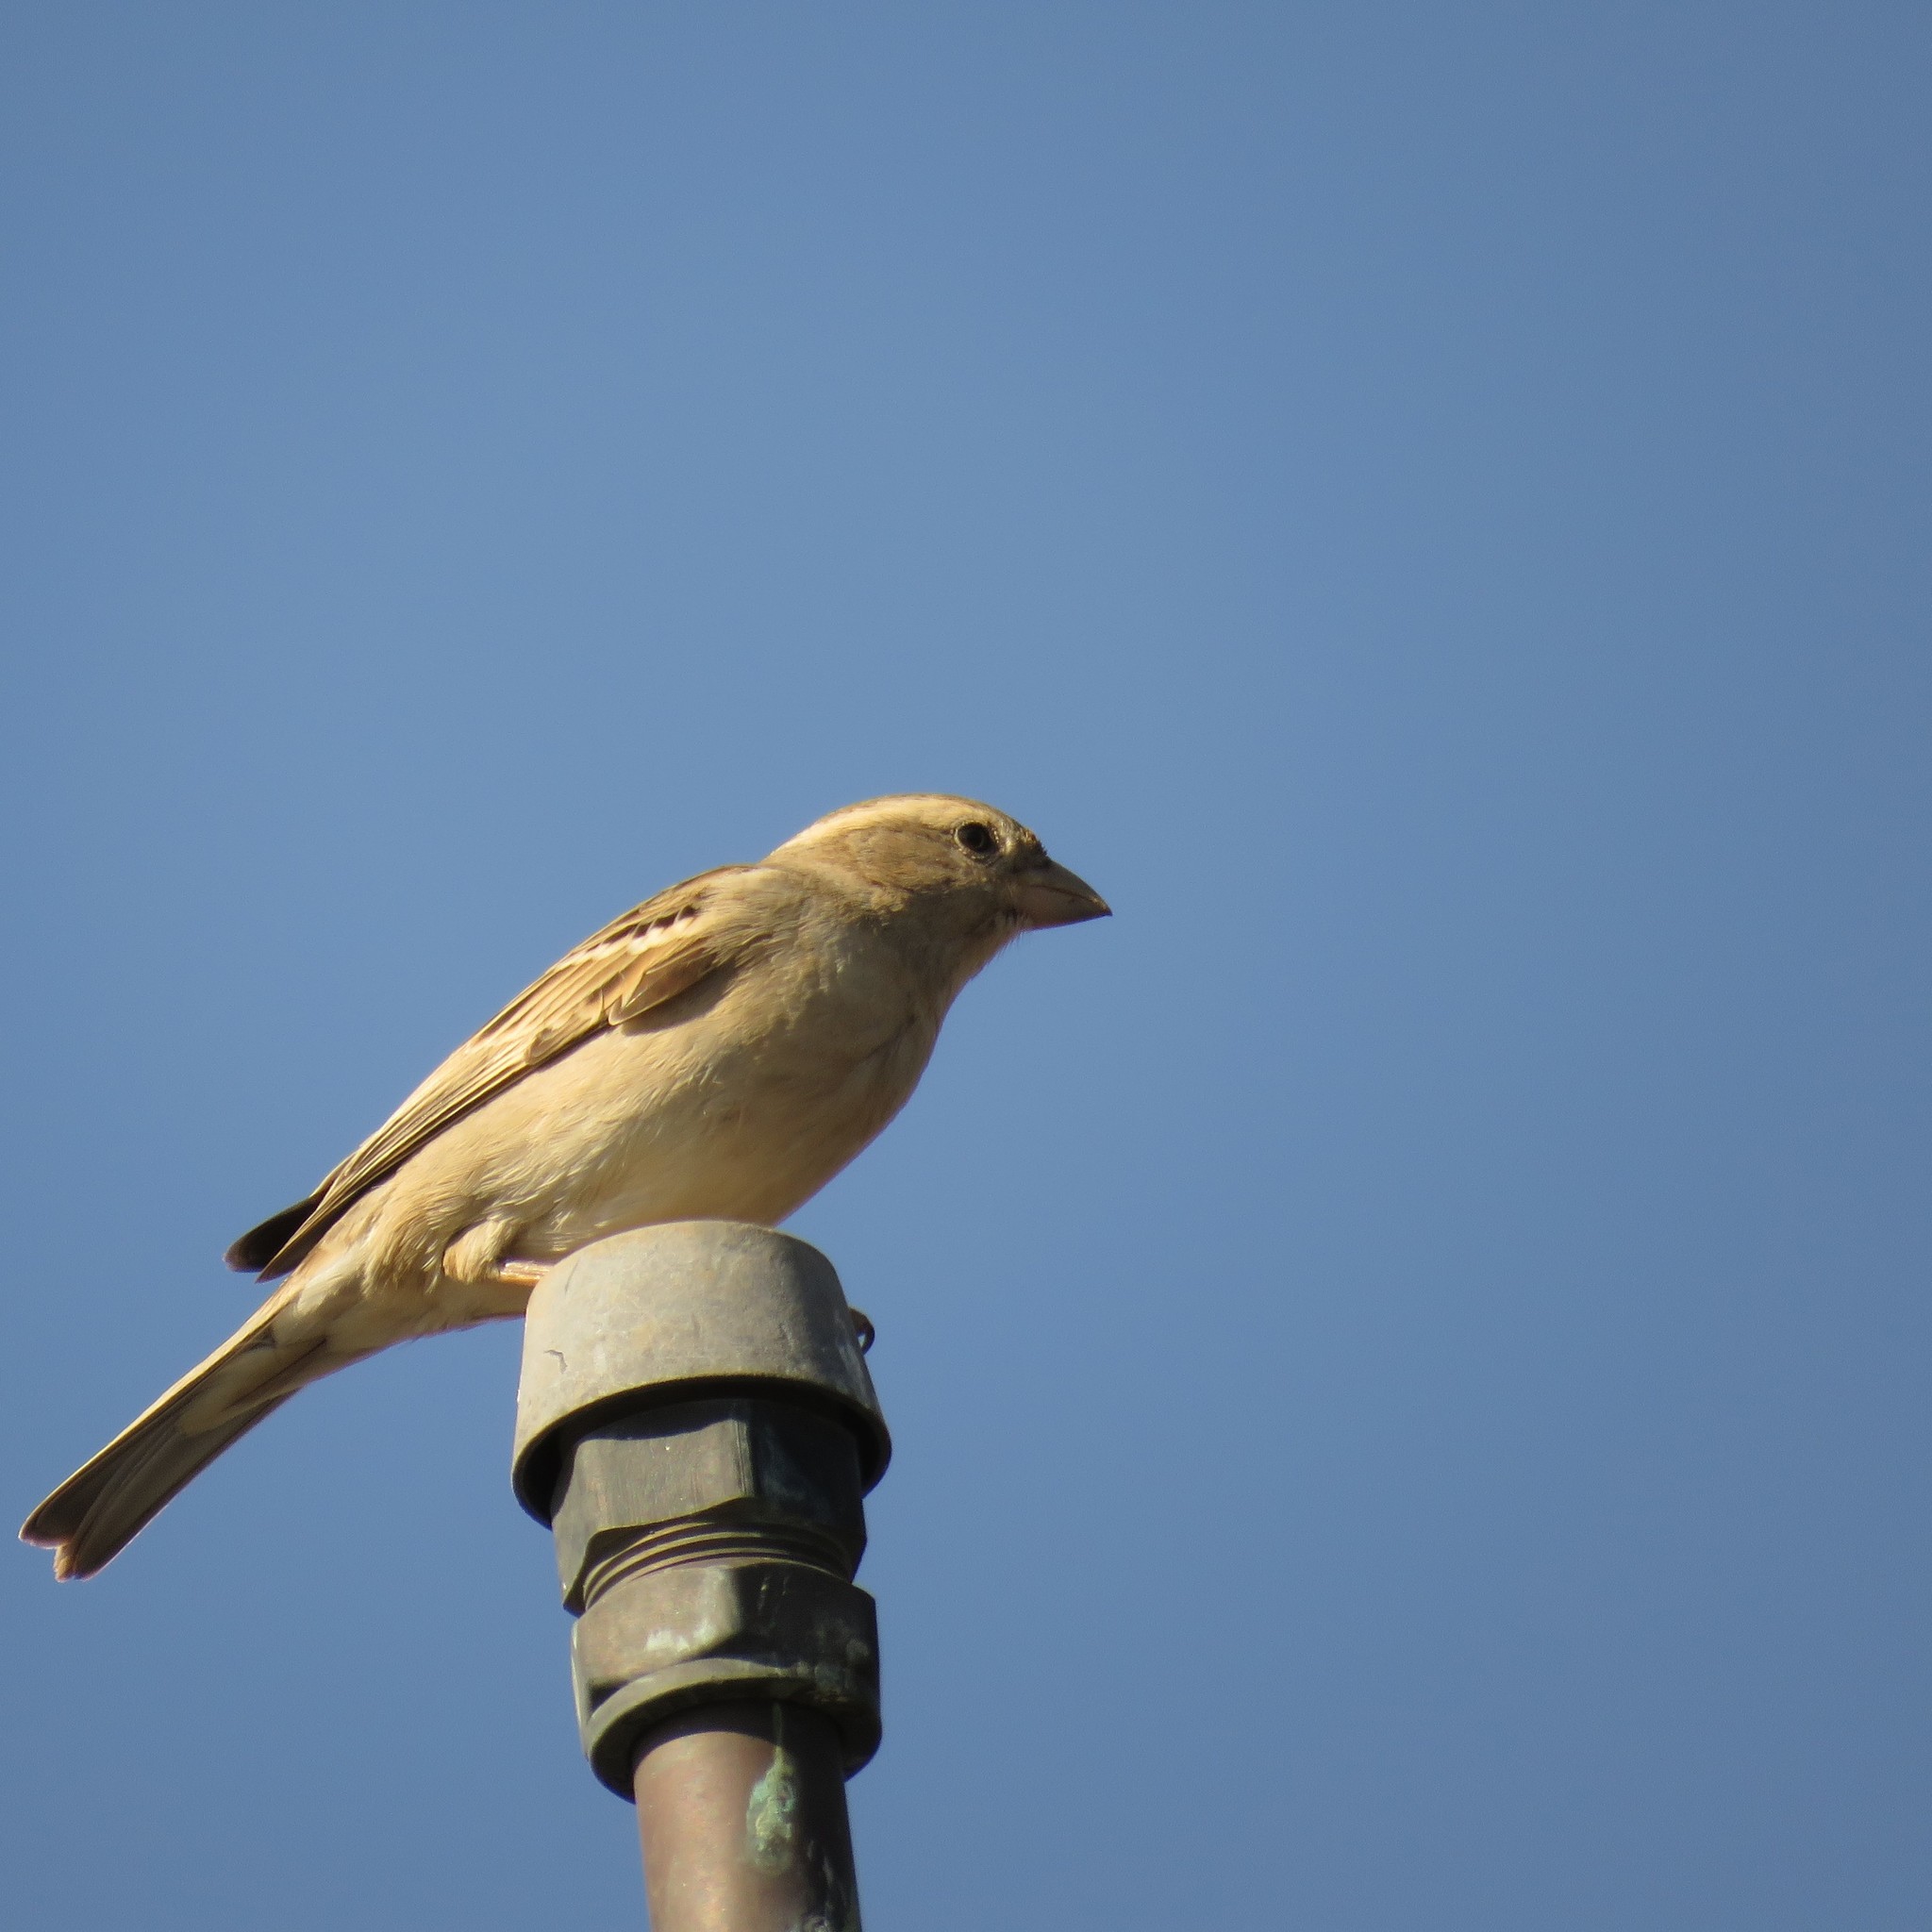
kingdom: Animalia
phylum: Chordata
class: Aves
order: Passeriformes
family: Passeridae
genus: Passer
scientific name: Passer domesticus
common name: House sparrow
